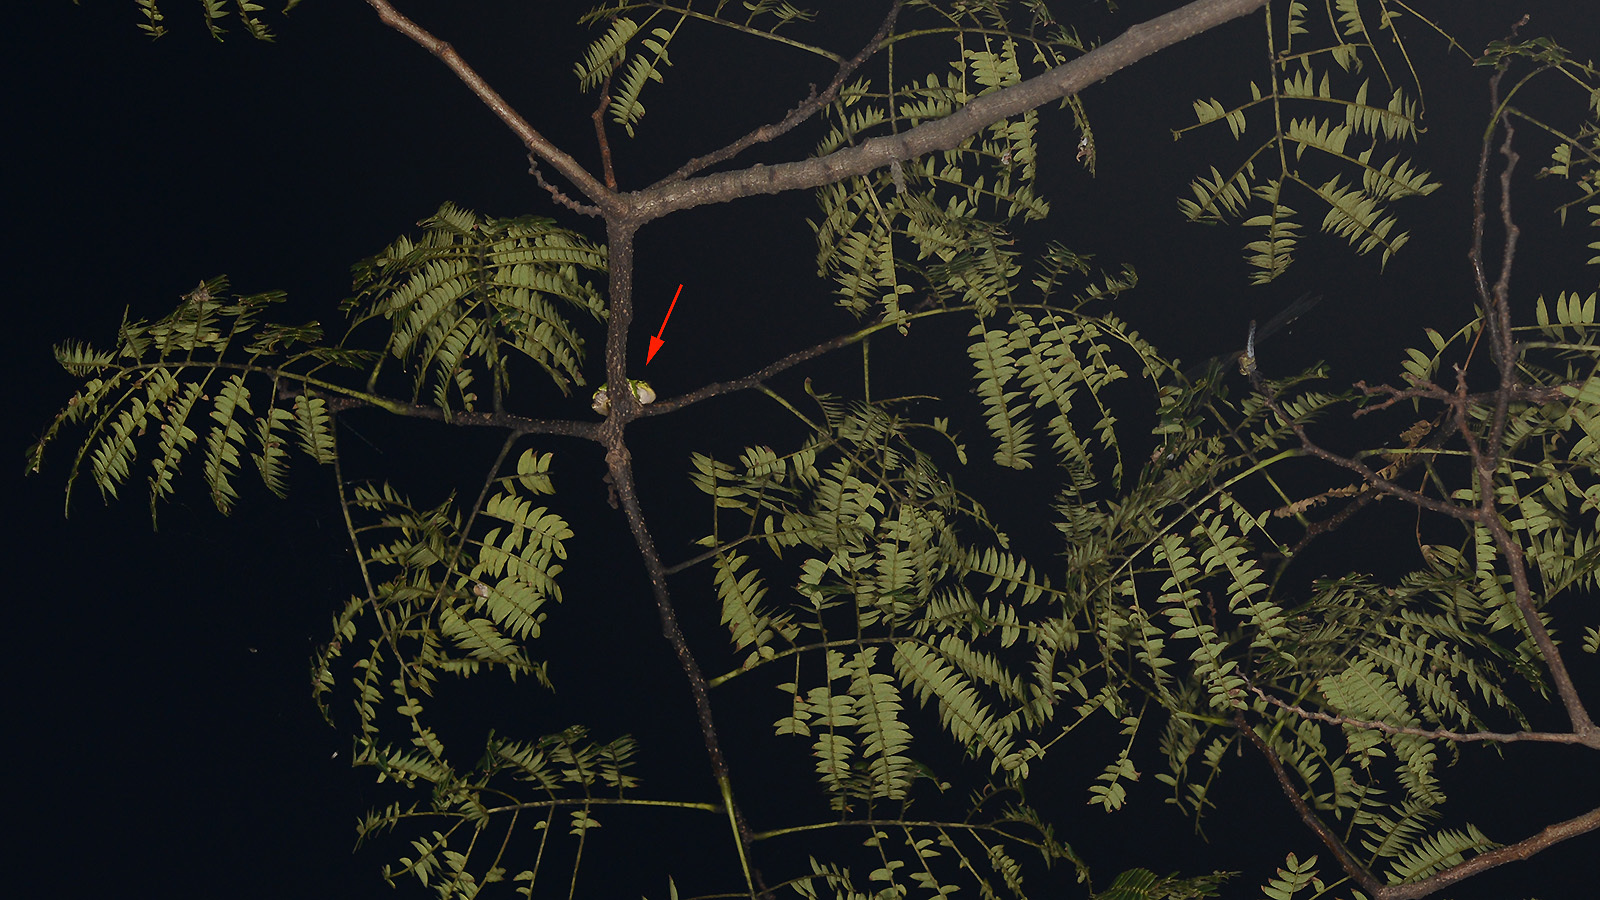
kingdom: Animalia
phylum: Chordata
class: Amphibia
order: Anura
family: Hylidae
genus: Dryophytes
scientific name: Dryophytes japonicus
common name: Japanese treefrog
